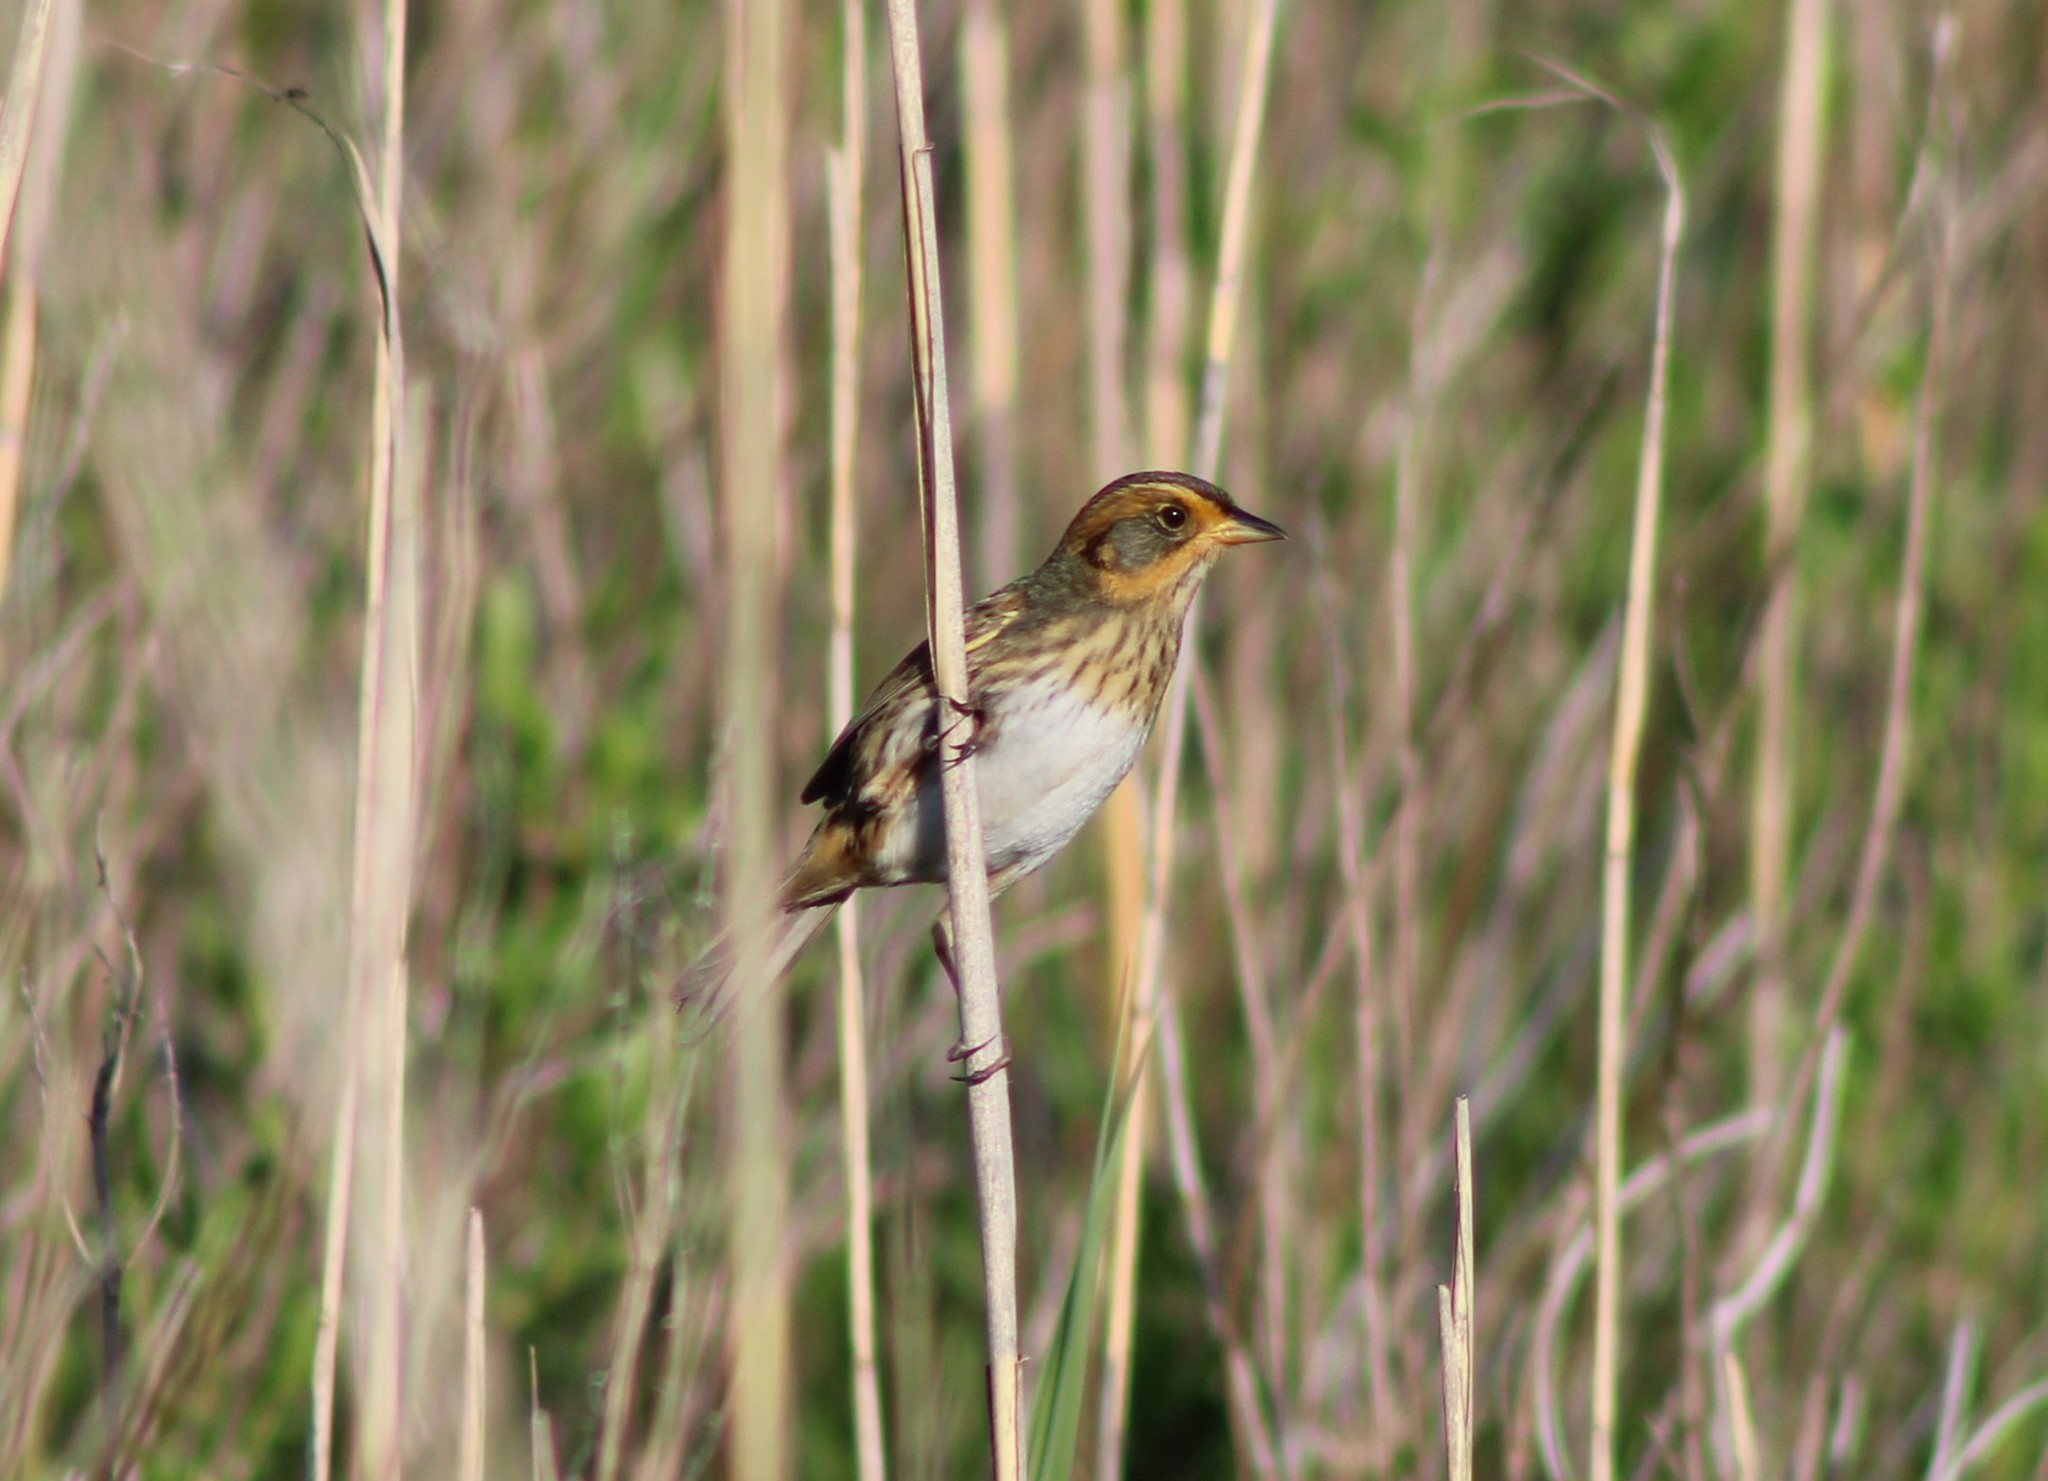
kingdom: Animalia
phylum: Chordata
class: Aves
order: Passeriformes
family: Passerellidae
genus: Ammospiza
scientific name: Ammospiza caudacuta
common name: Saltmarsh sparrow
